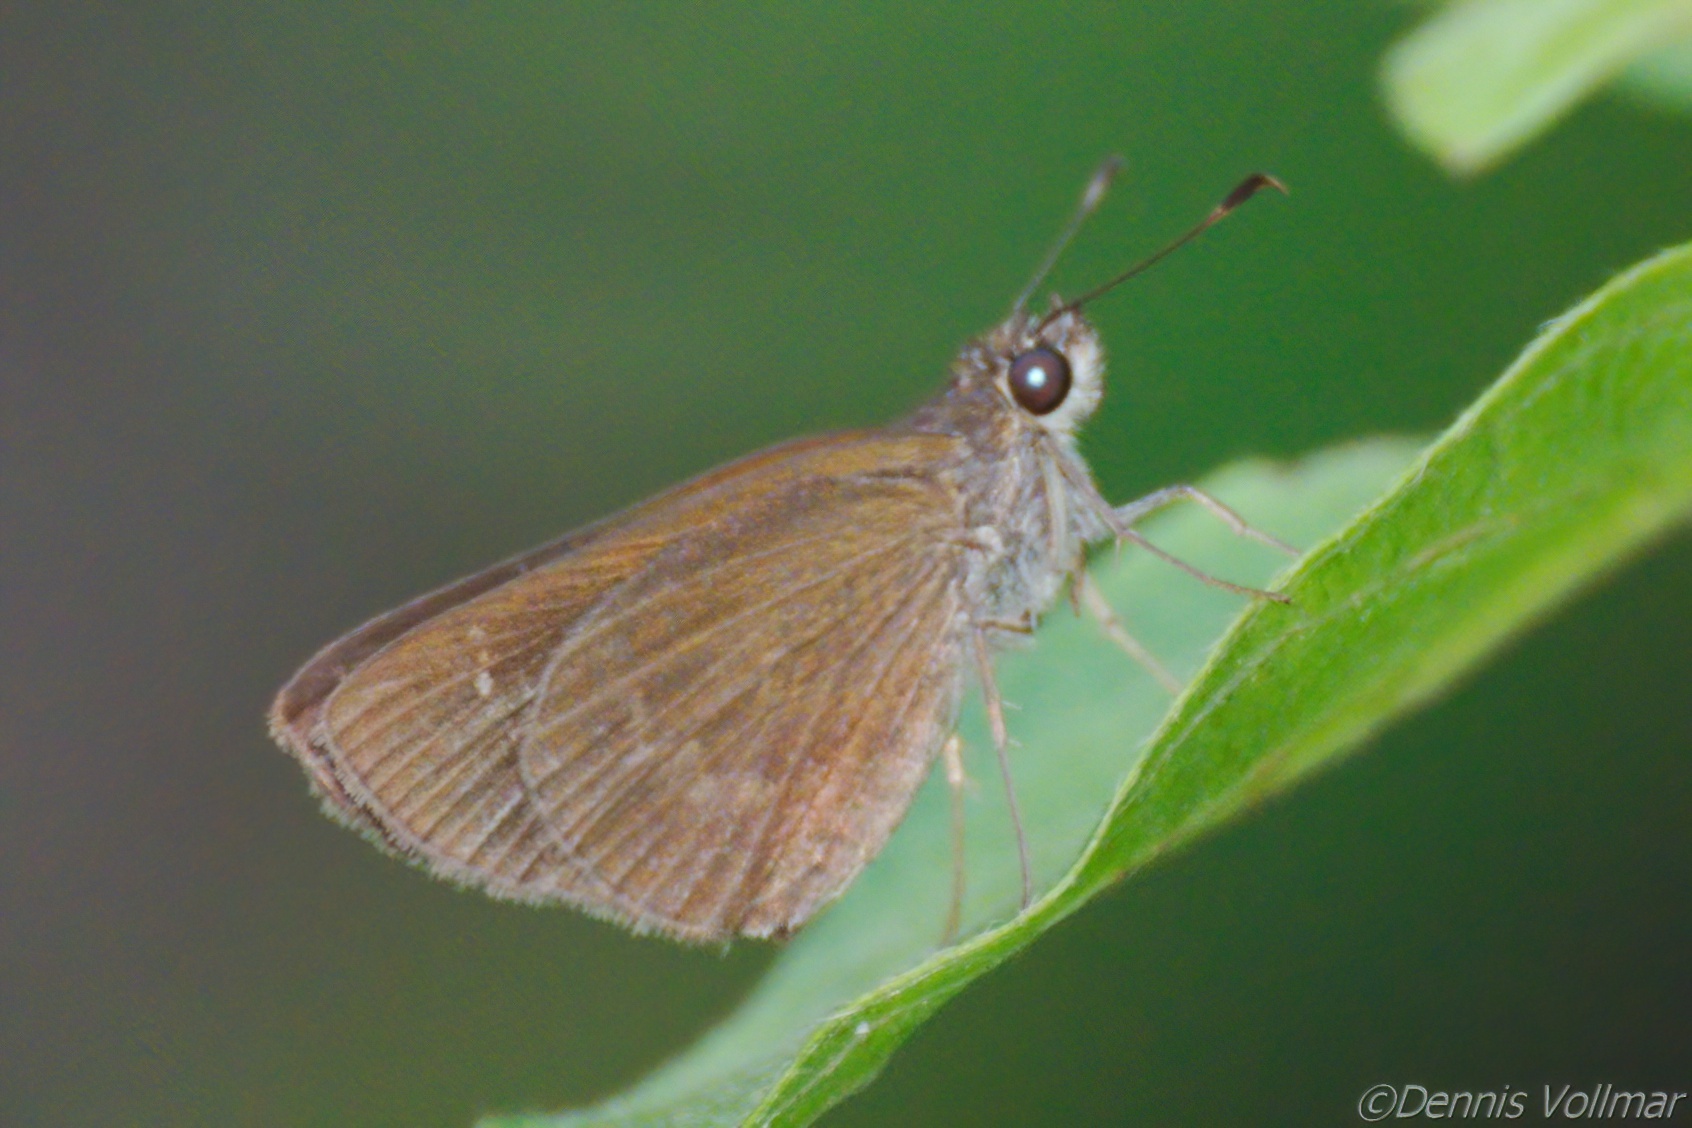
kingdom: Animalia
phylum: Arthropoda
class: Insecta
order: Lepidoptera
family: Hesperiidae
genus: Cymaenes
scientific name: Cymaenes tripunctus
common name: Dingy dotted skipper
